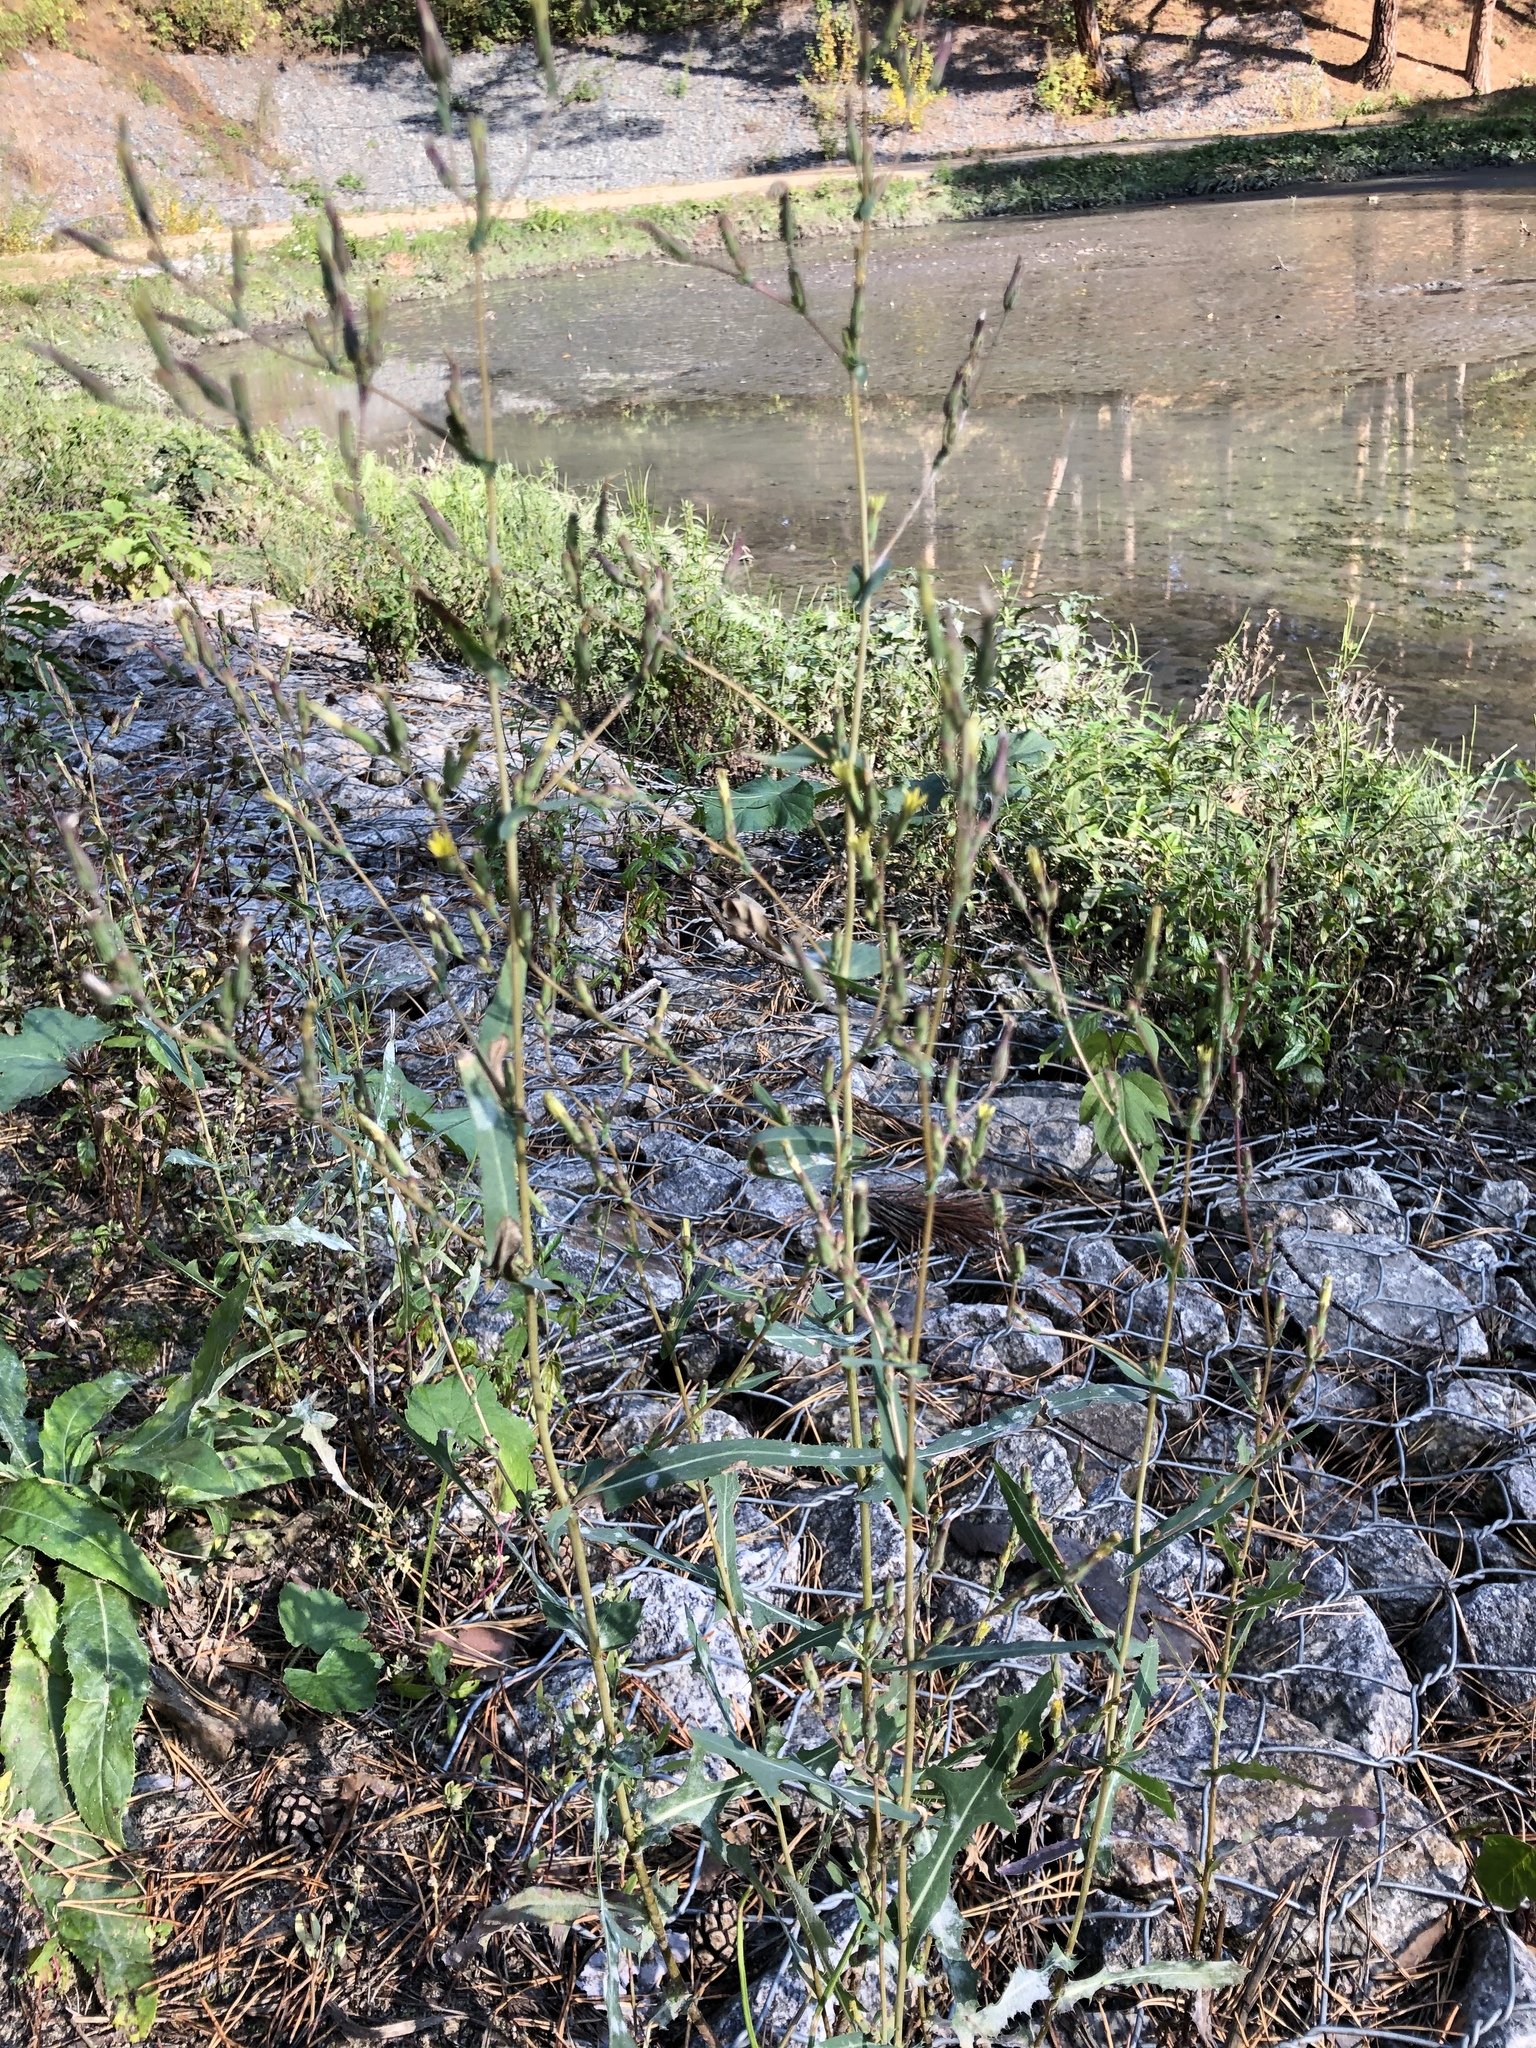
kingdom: Plantae
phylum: Tracheophyta
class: Magnoliopsida
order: Asterales
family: Asteraceae
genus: Lactuca
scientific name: Lactuca serriola
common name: Prickly lettuce
